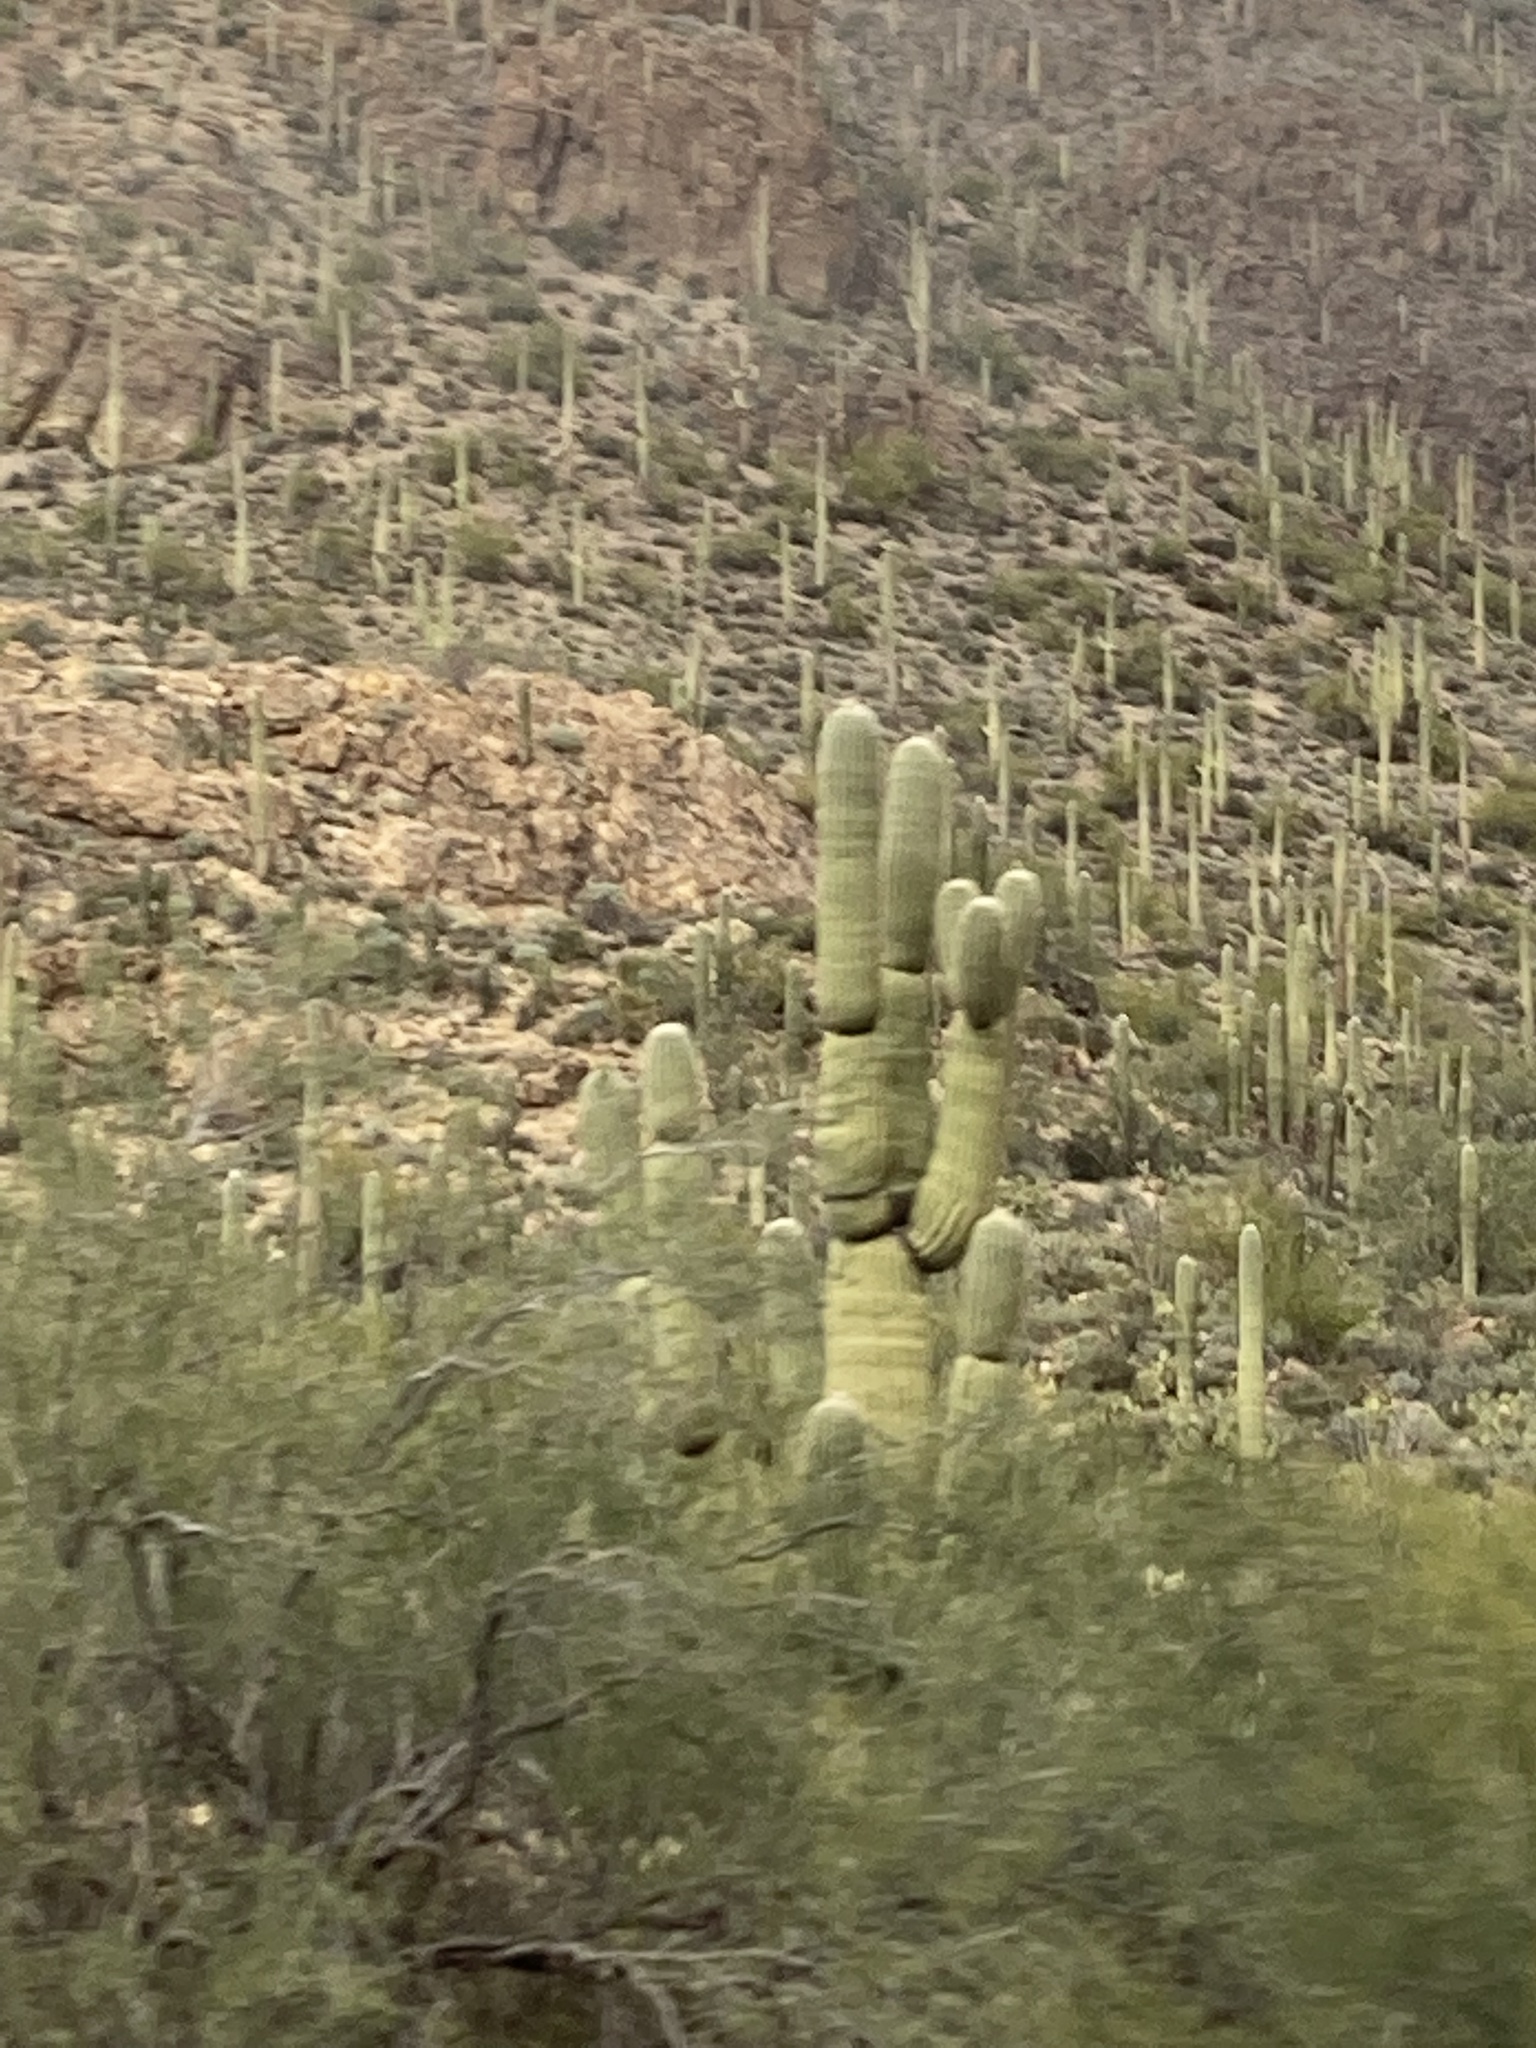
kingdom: Plantae
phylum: Tracheophyta
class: Magnoliopsida
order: Caryophyllales
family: Cactaceae
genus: Carnegiea
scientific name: Carnegiea gigantea
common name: Saguaro
